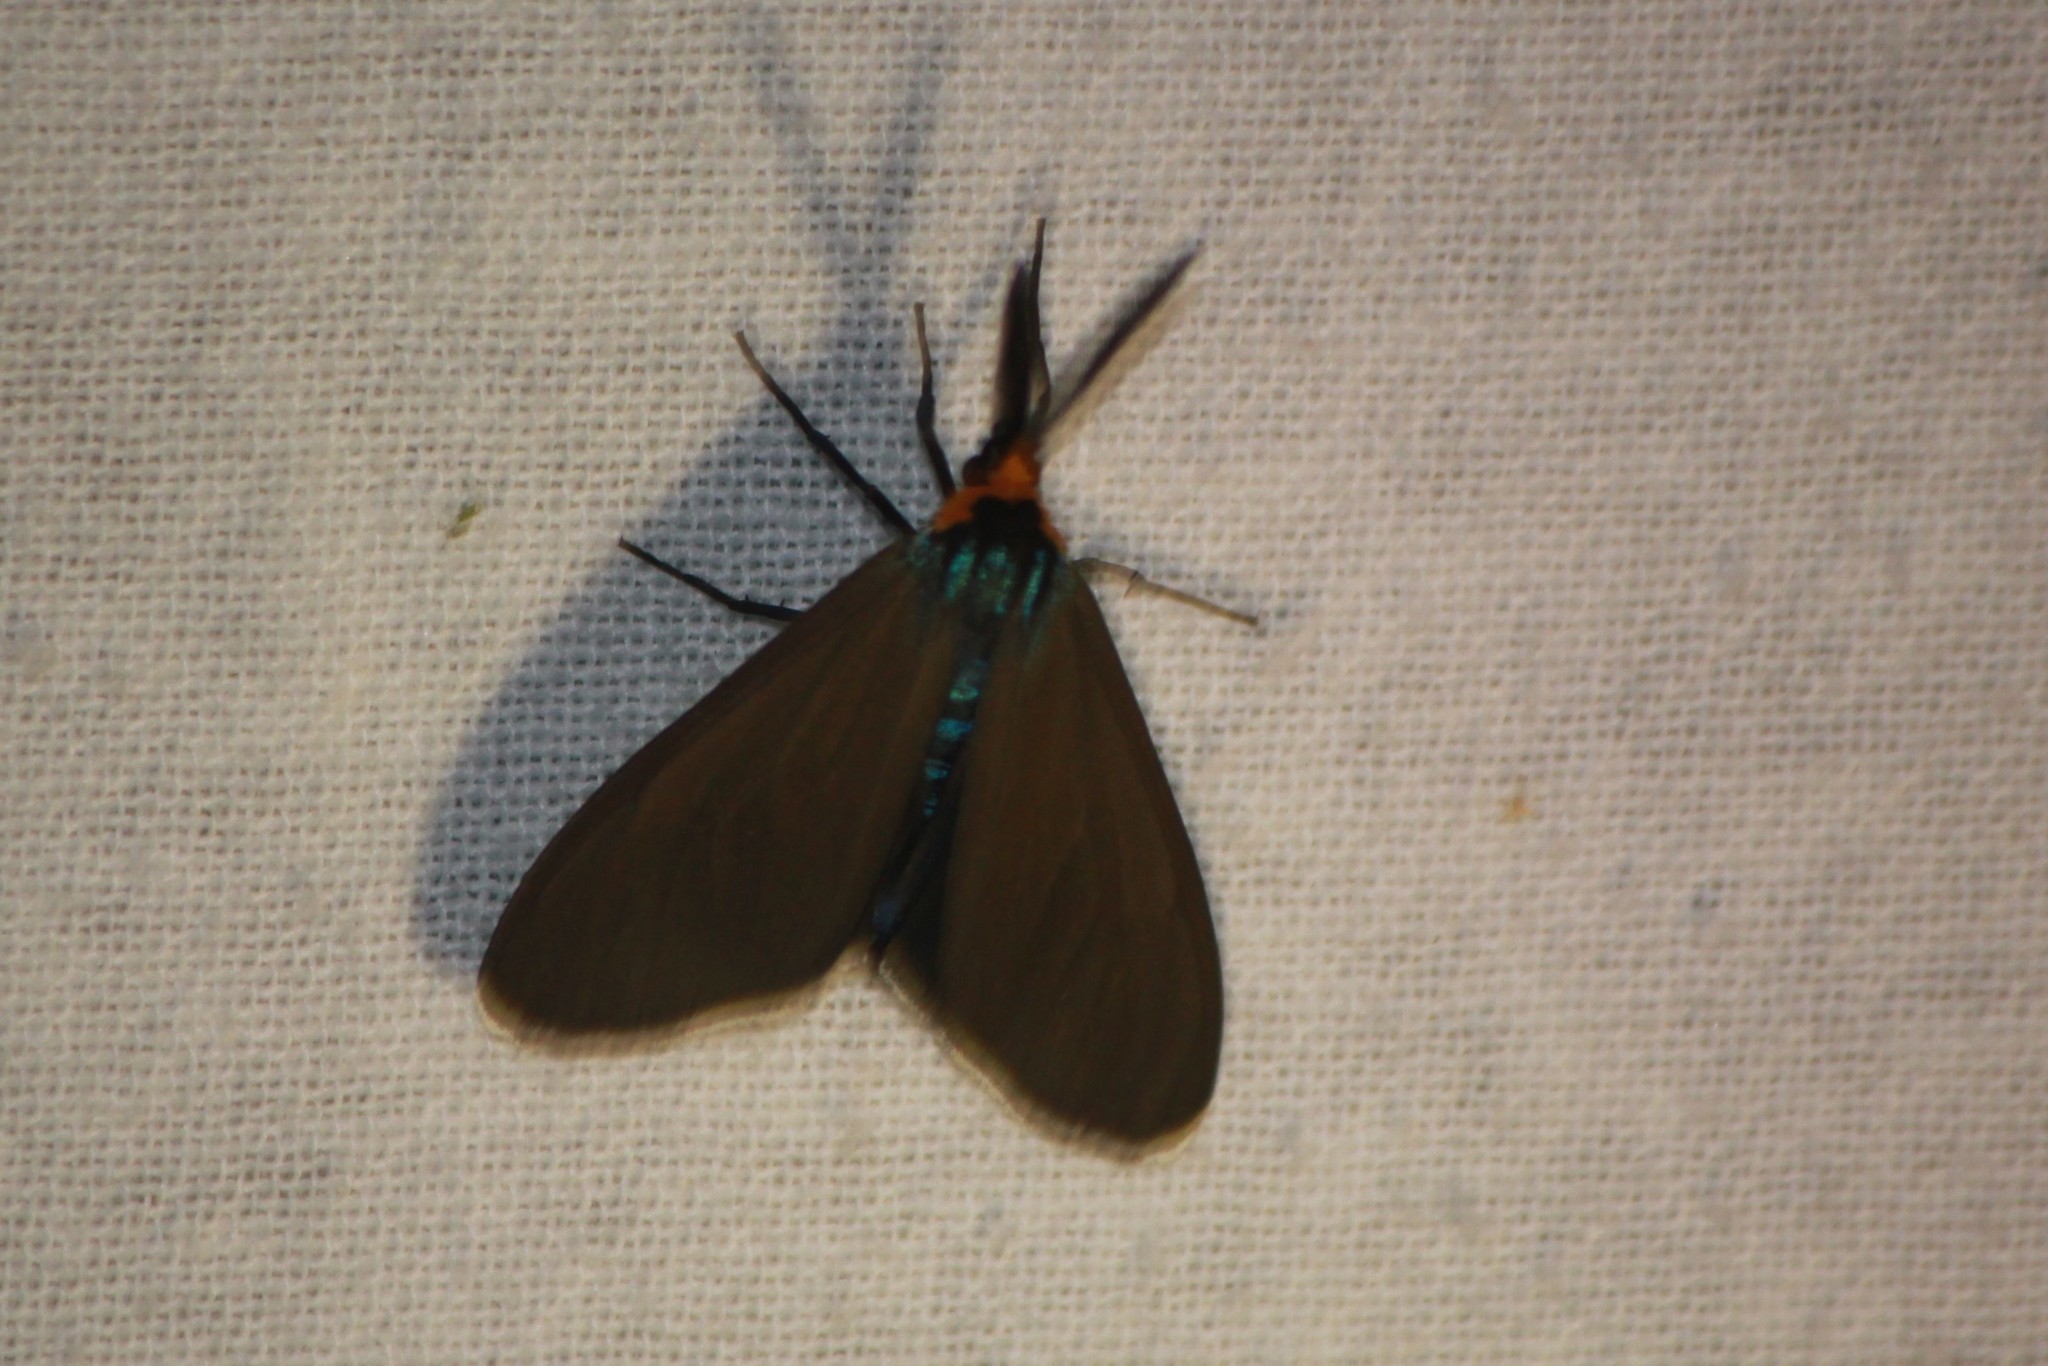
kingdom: Animalia
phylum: Arthropoda
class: Insecta
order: Lepidoptera
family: Erebidae
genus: Ctenucha
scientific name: Ctenucha virginica
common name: Virginia ctenucha moth
